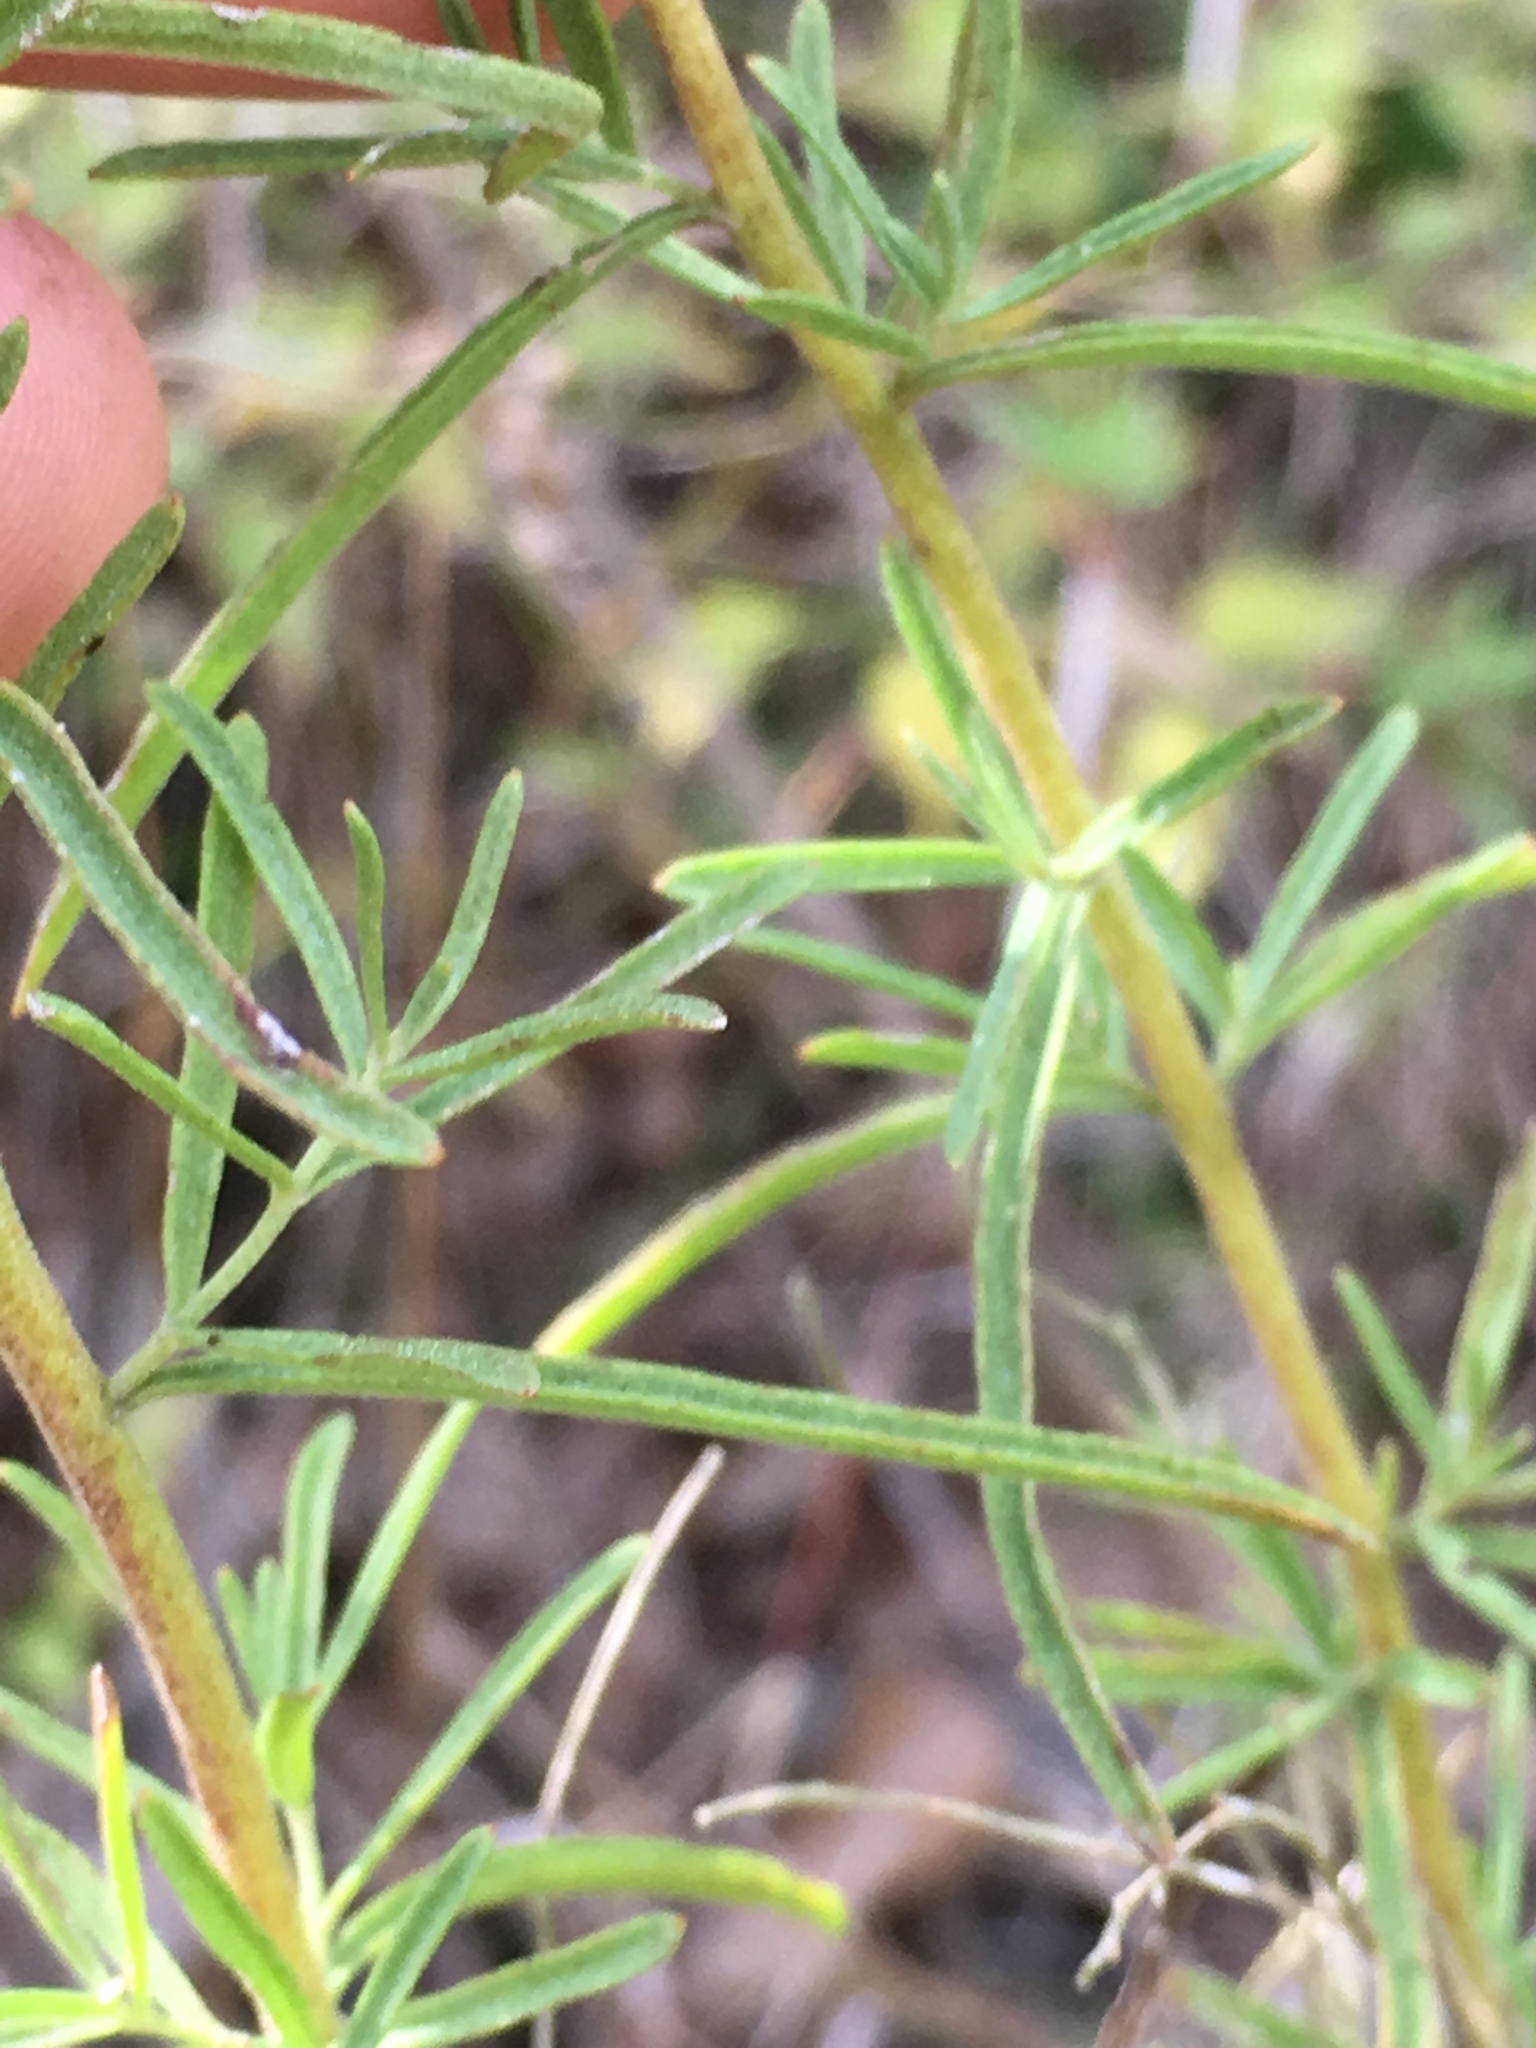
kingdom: Plantae
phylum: Tracheophyta
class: Magnoliopsida
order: Asterales
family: Asteraceae
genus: Eupatorium
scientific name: Eupatorium hyssopifolium
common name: Hyssop-leaf thoroughwort
